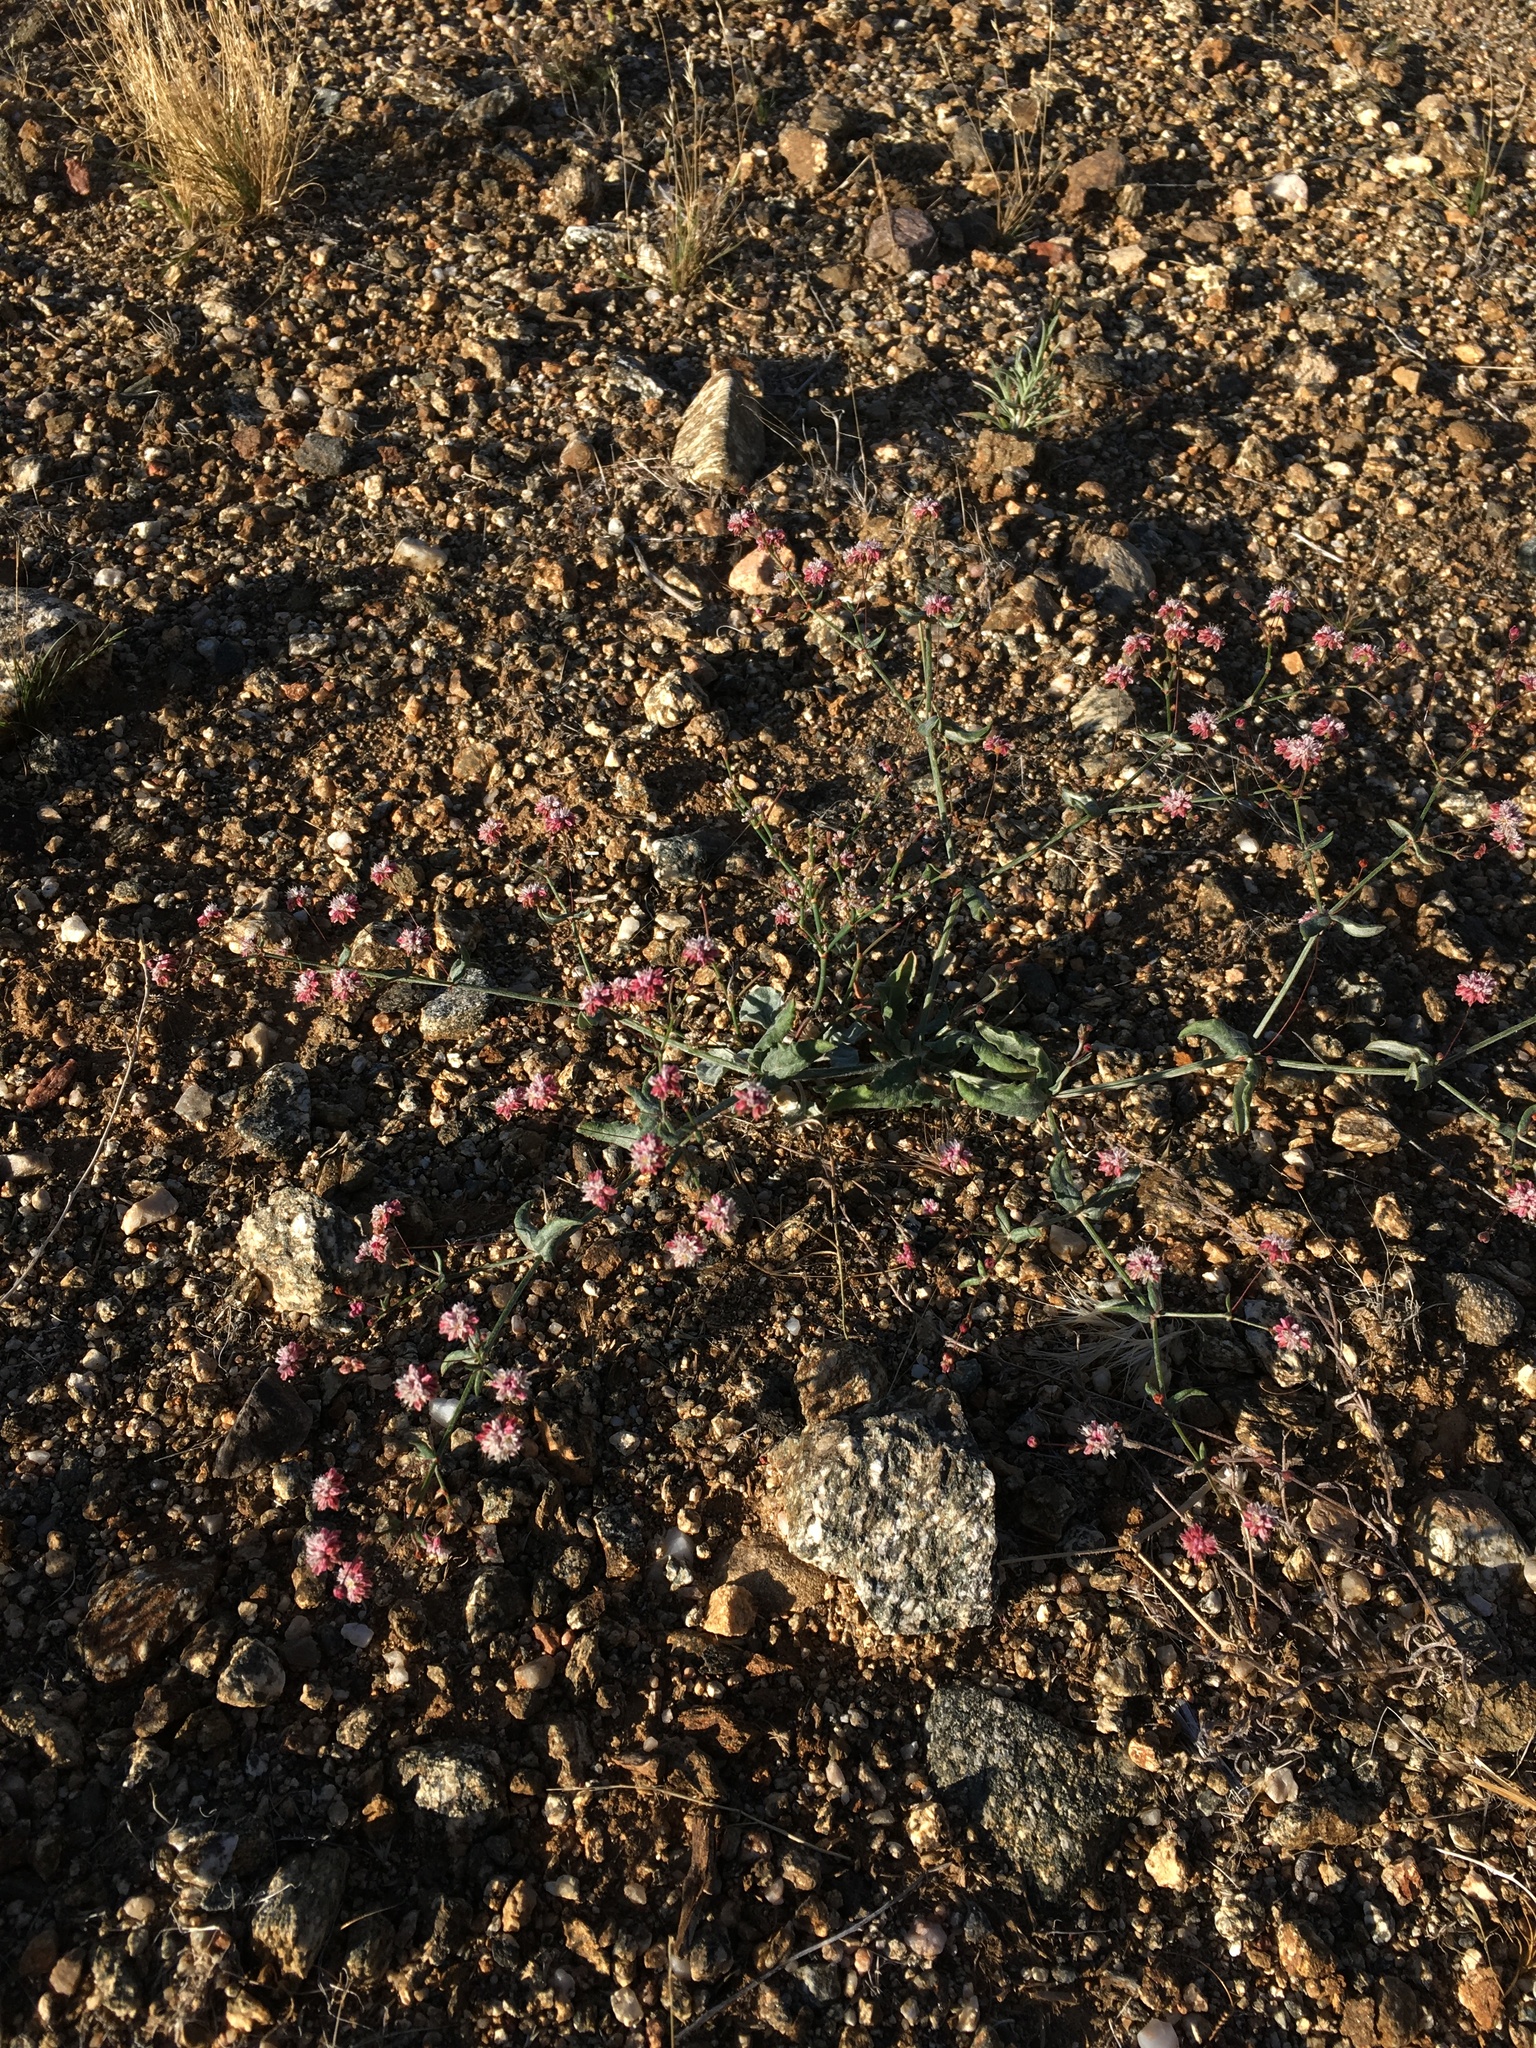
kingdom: Plantae
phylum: Tracheophyta
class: Magnoliopsida
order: Caryophyllales
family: Polygonaceae
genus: Eriogonum
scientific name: Eriogonum angulosum
